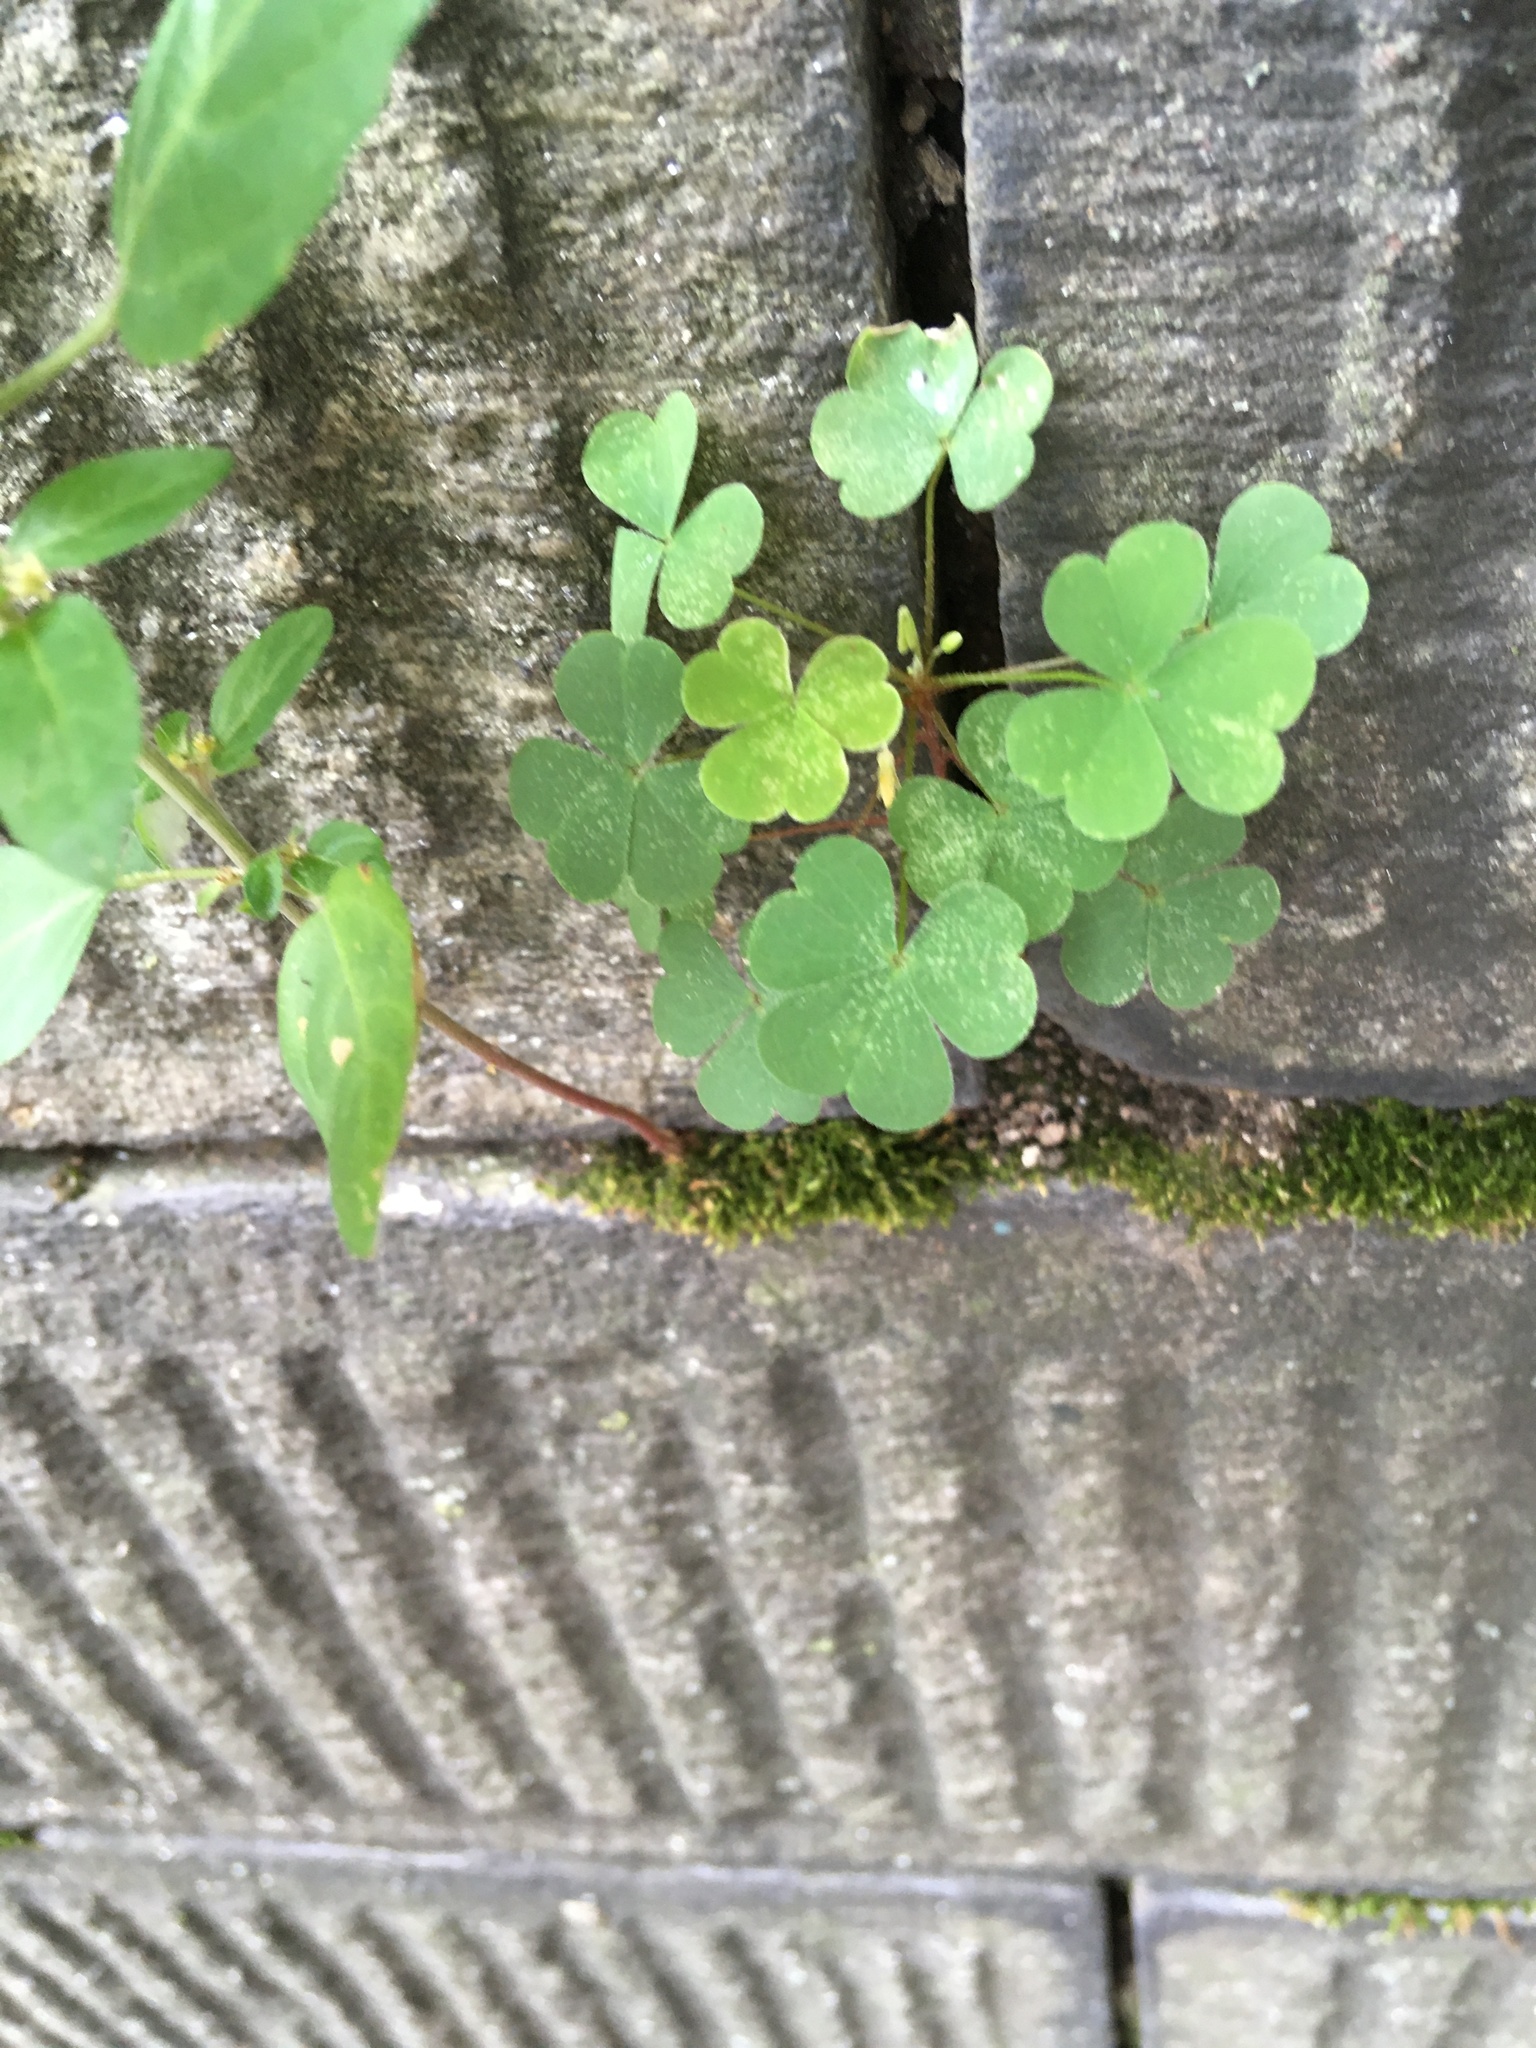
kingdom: Plantae
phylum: Tracheophyta
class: Magnoliopsida
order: Oxalidales
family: Oxalidaceae
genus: Oxalis
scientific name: Oxalis corniculata
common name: Procumbent yellow-sorrel
